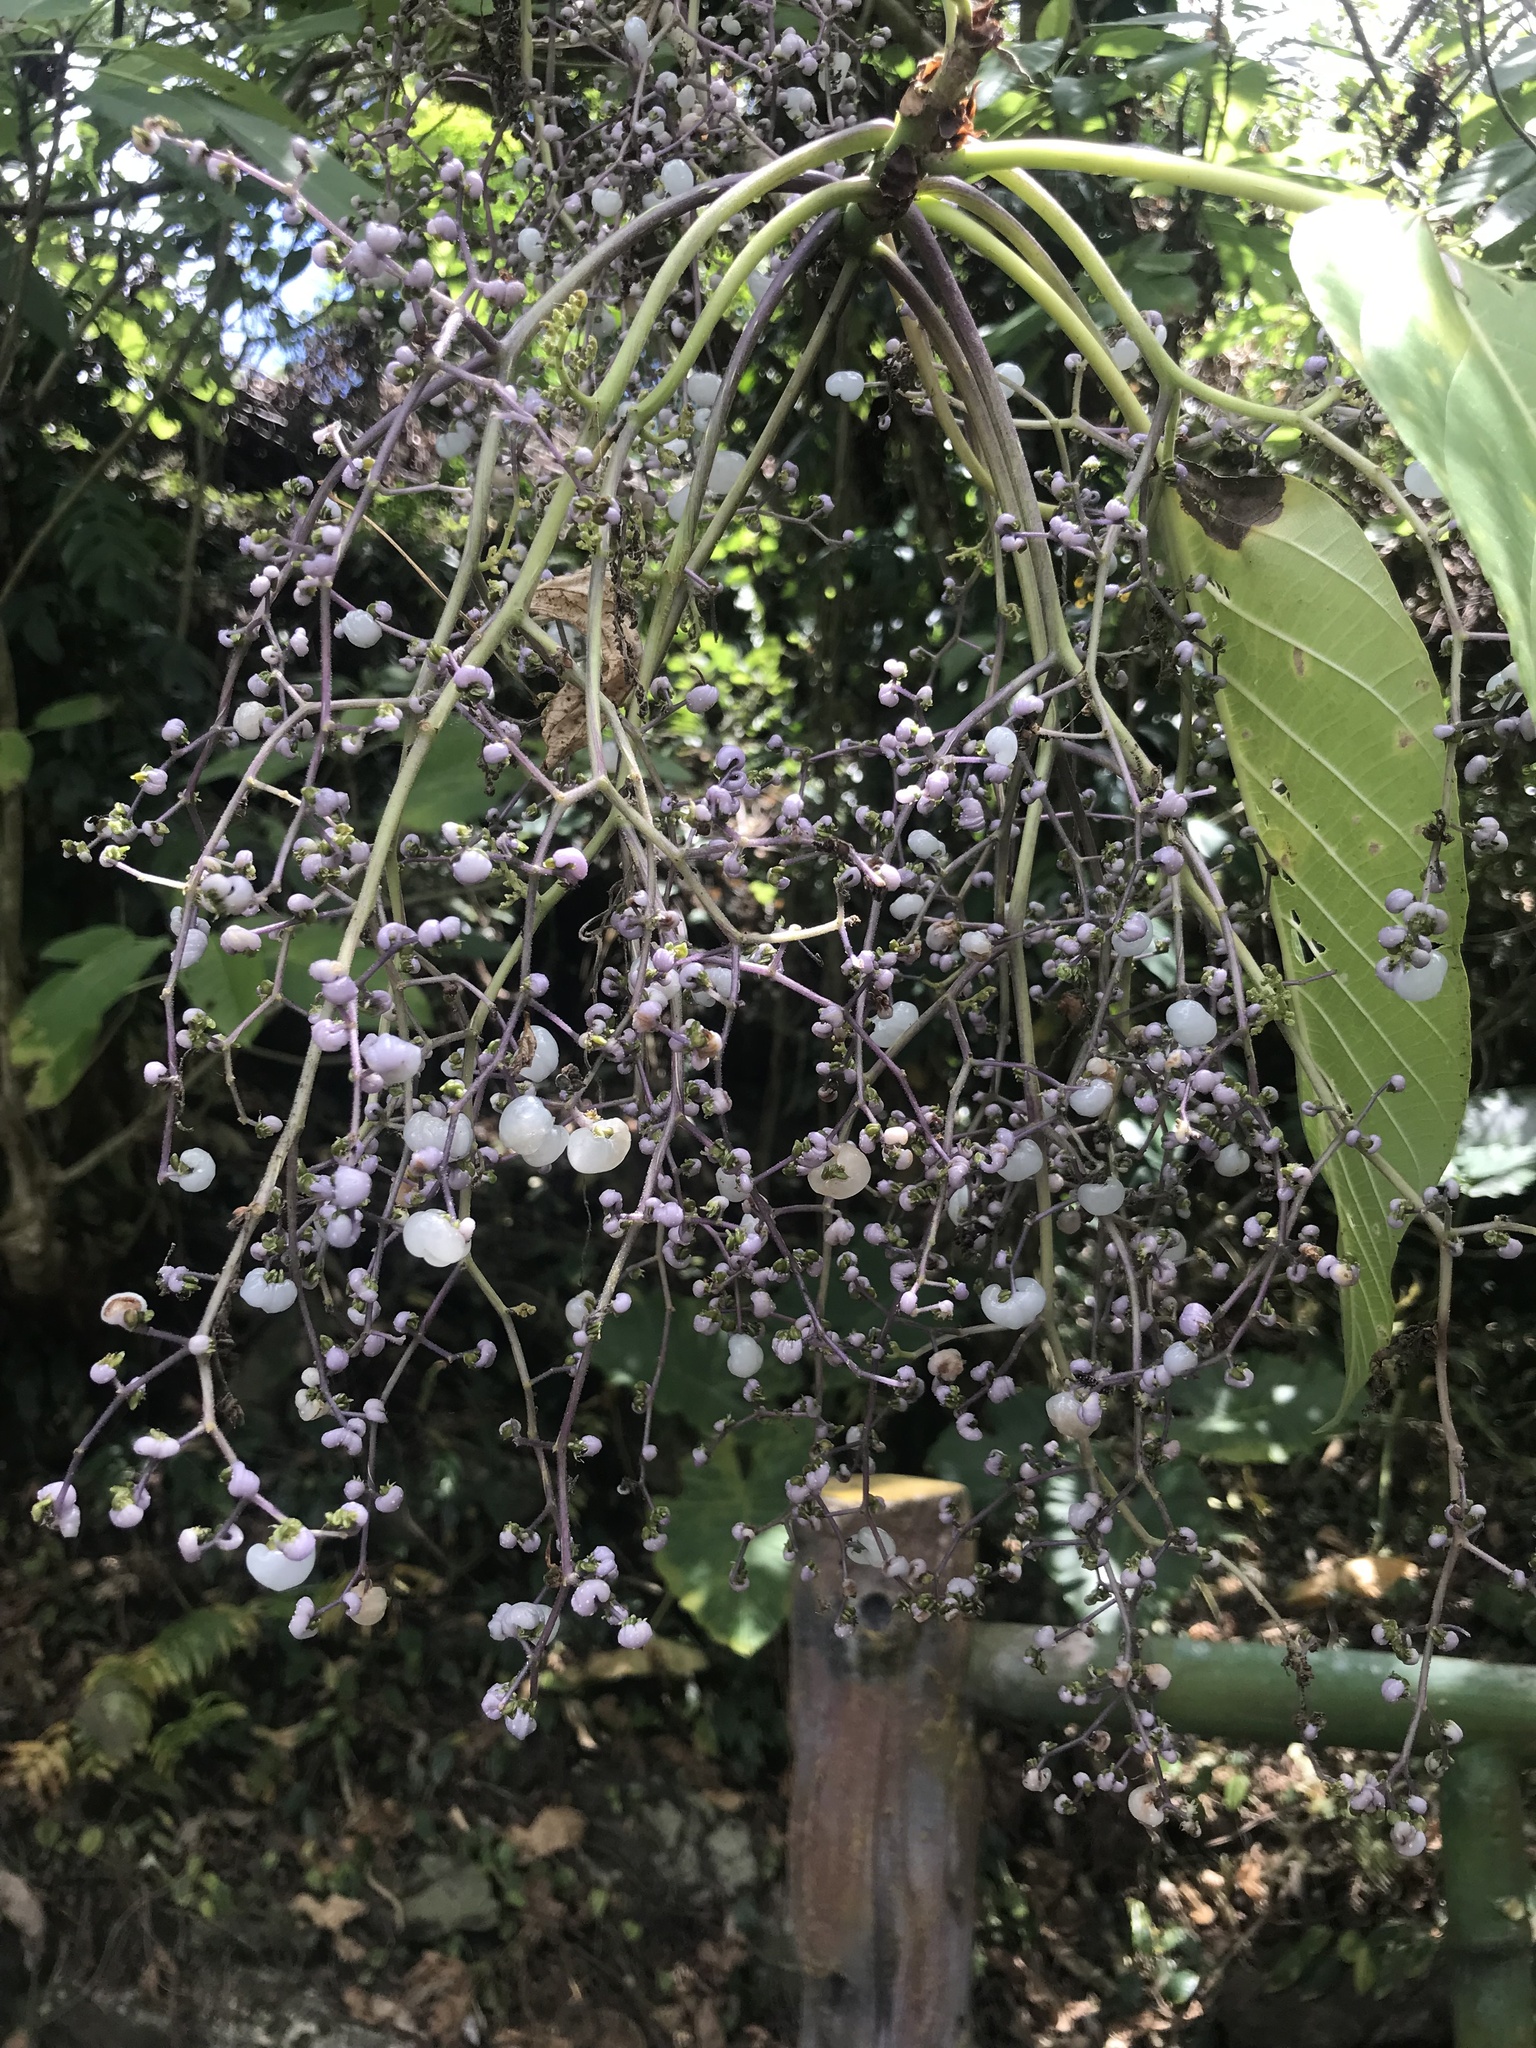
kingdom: Plantae
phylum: Tracheophyta
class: Magnoliopsida
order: Rosales
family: Urticaceae
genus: Dendrocnide
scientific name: Dendrocnide meyeniana
